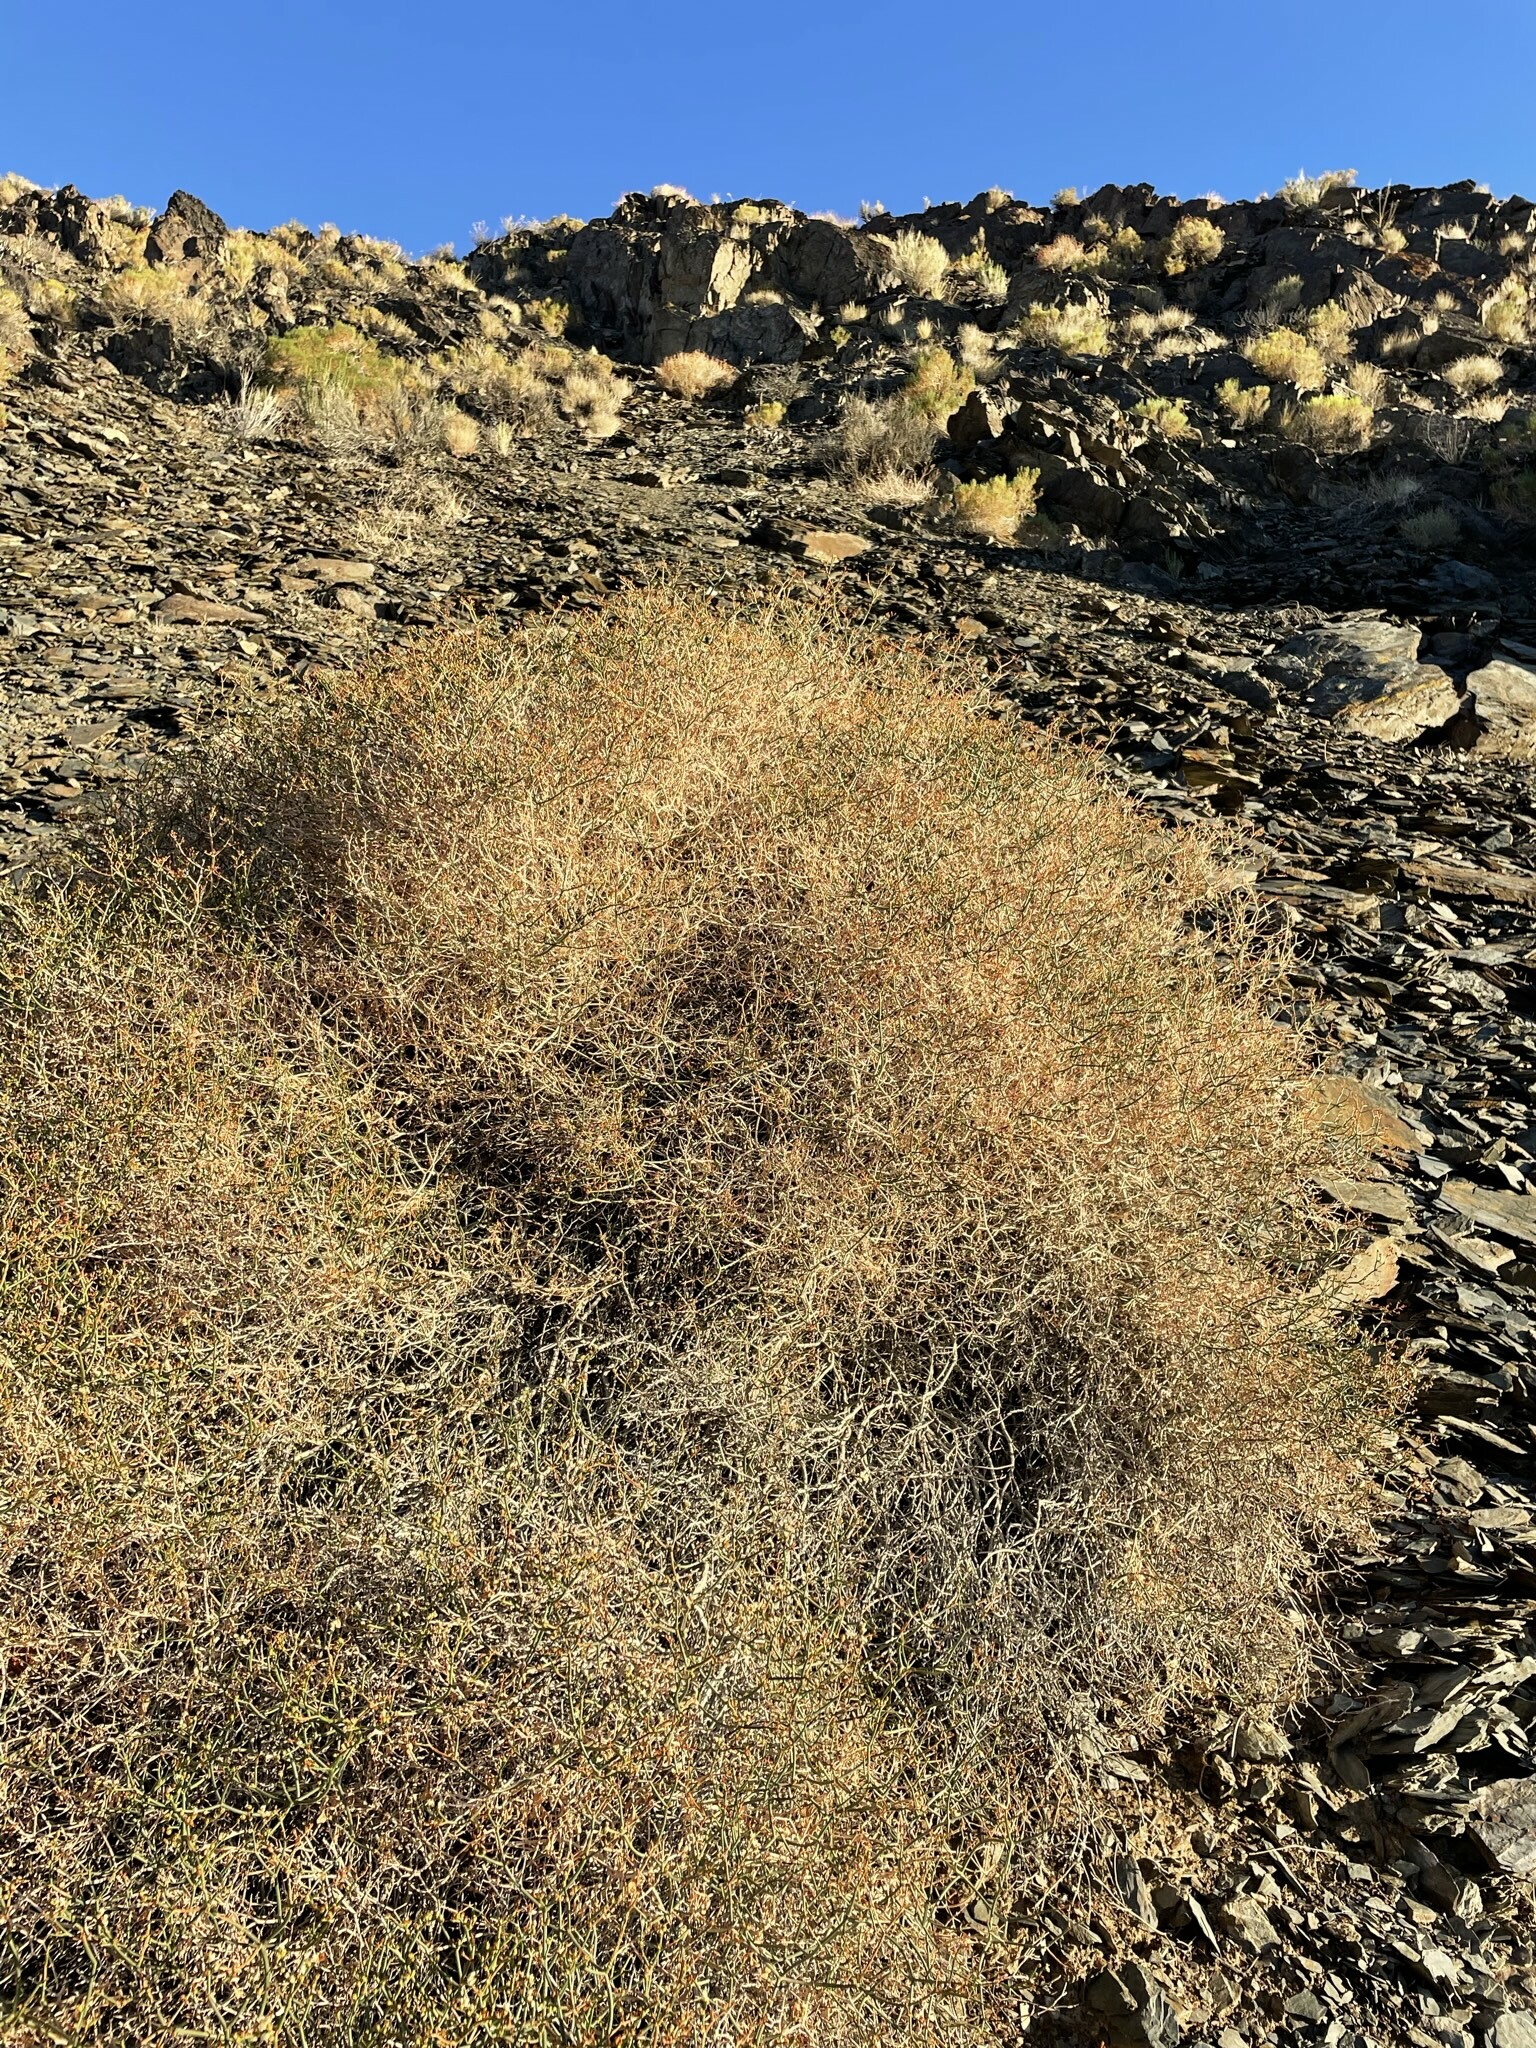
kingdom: Plantae
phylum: Tracheophyta
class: Magnoliopsida
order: Caryophyllales
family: Polygonaceae
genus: Eriogonum
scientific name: Eriogonum heermannii
